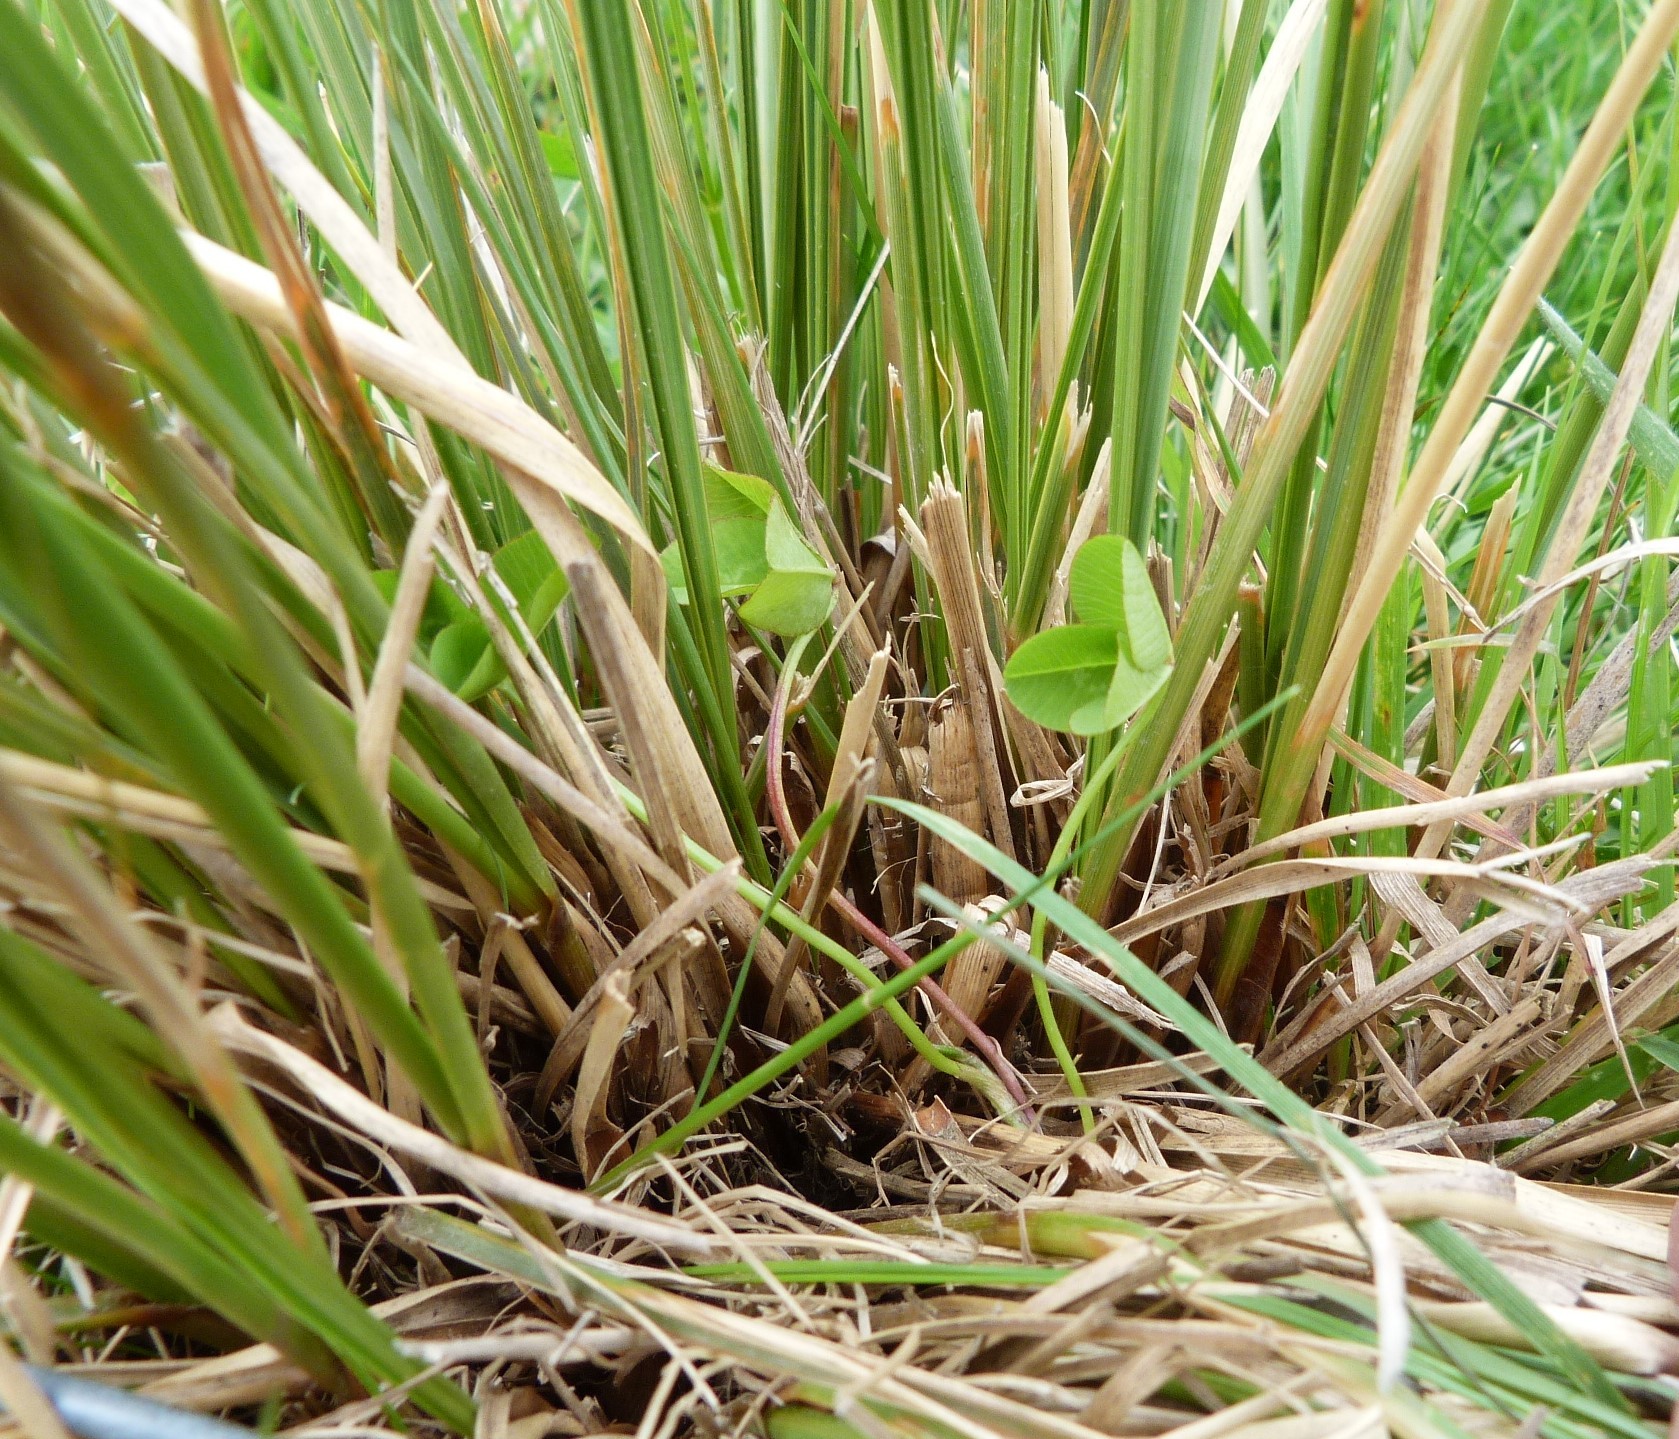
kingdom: Plantae
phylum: Tracheophyta
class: Liliopsida
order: Poales
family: Poaceae
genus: Chionochloa
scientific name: Chionochloa rigida
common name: Narrow leaved snow tussock
